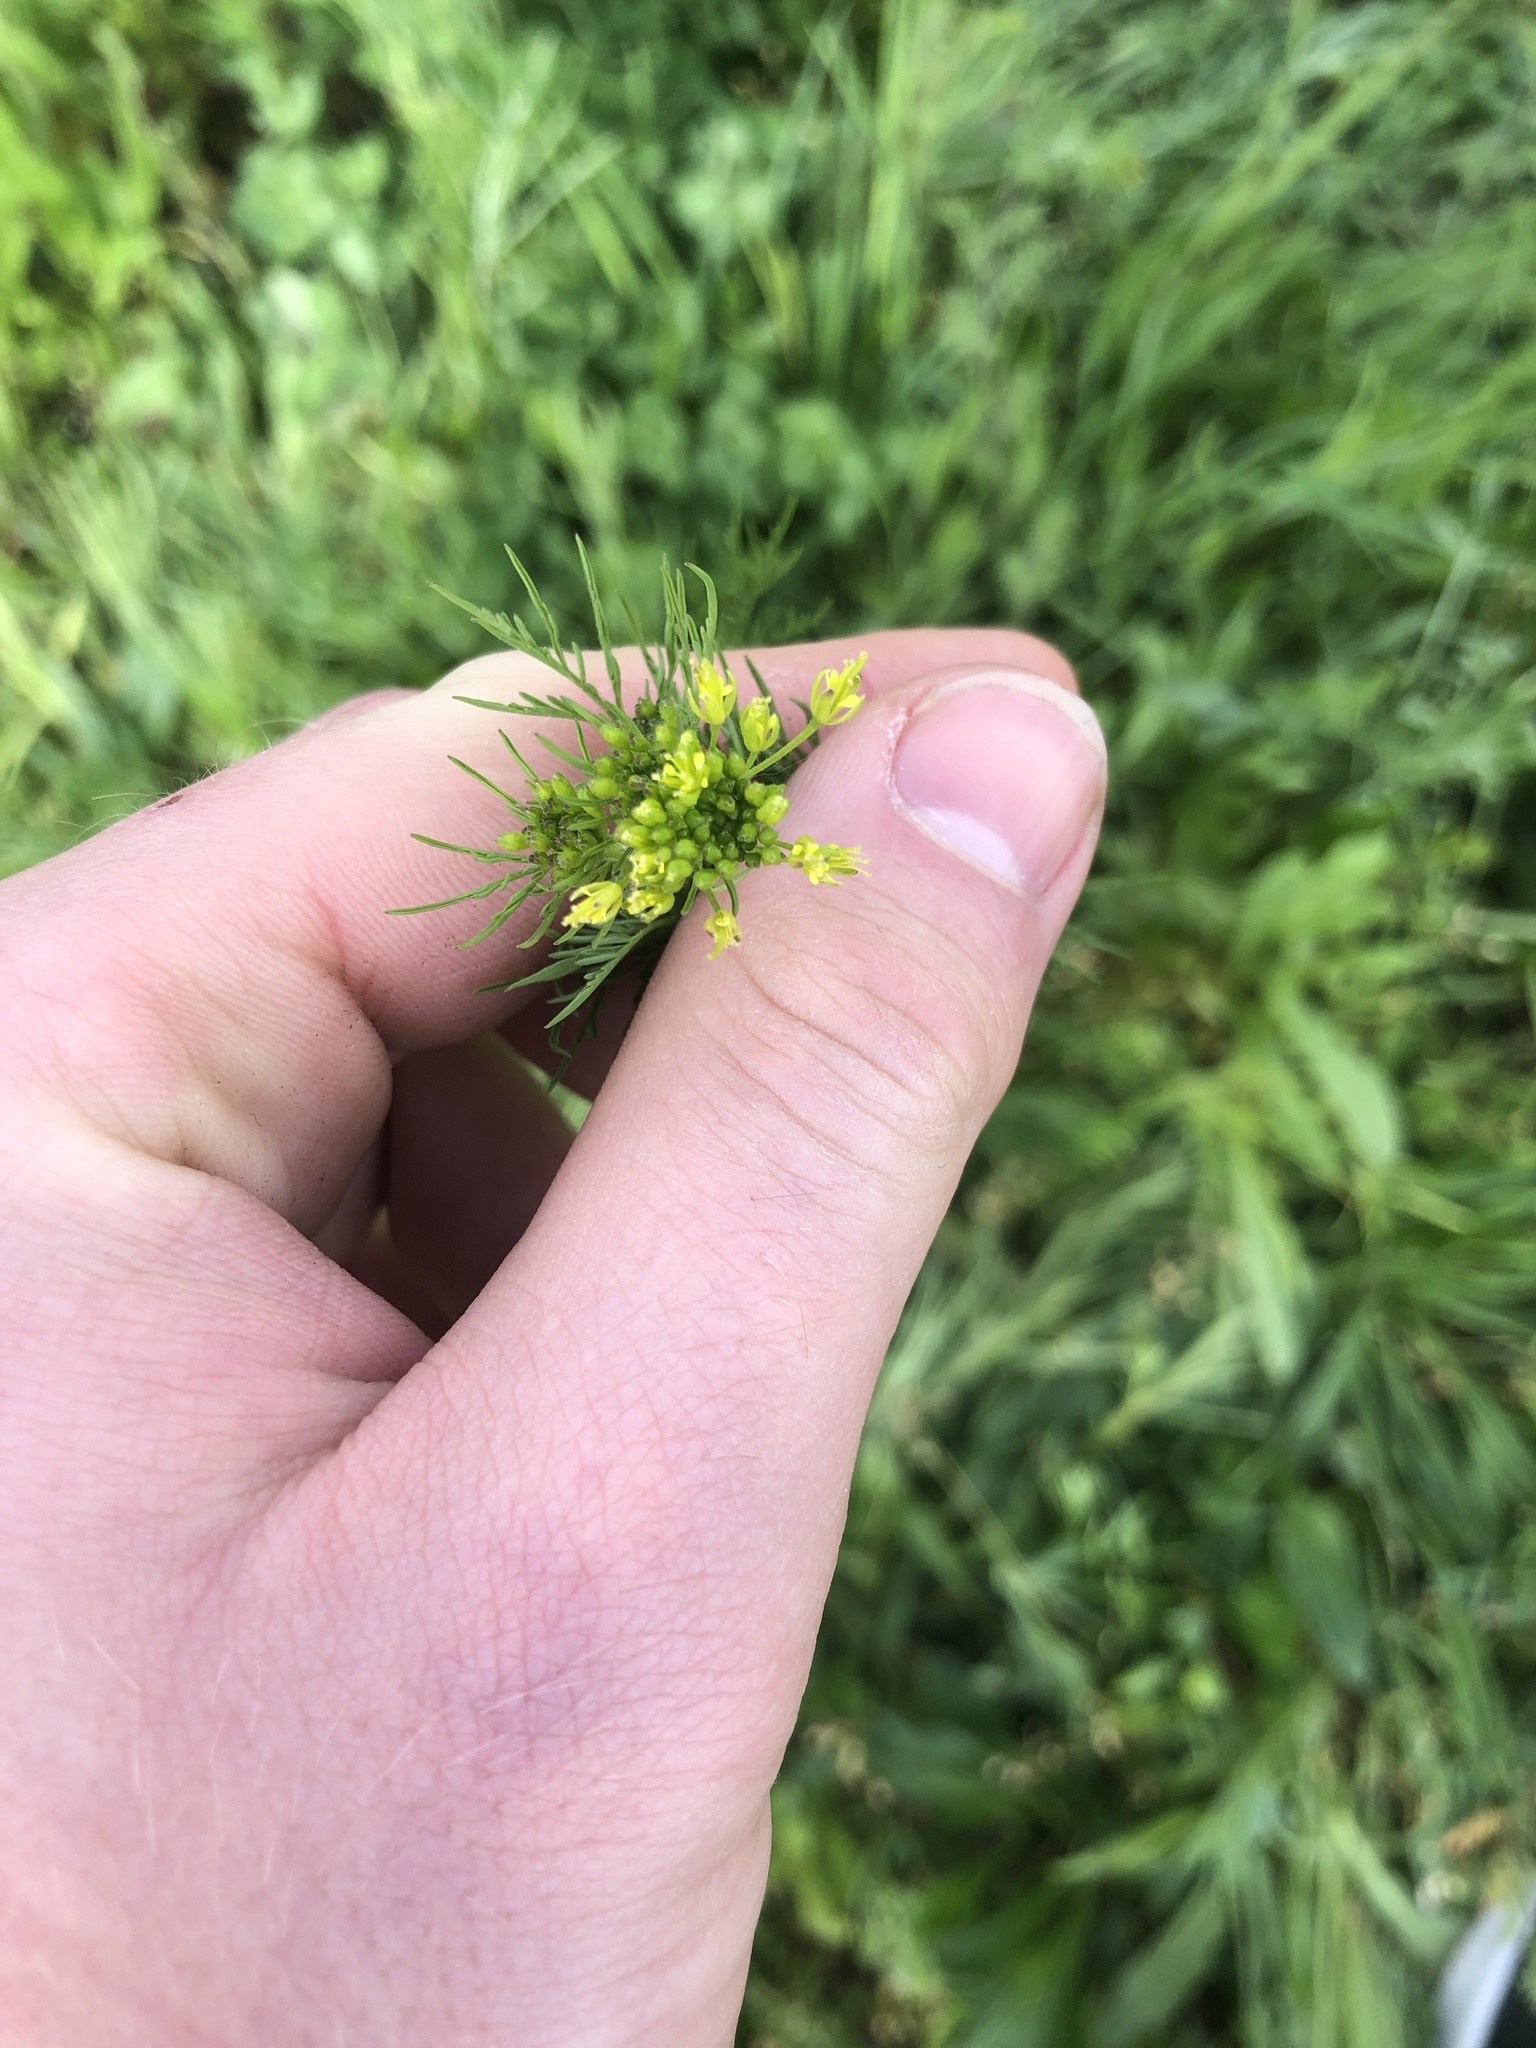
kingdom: Plantae
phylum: Tracheophyta
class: Magnoliopsida
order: Brassicales
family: Brassicaceae
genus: Descurainia
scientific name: Descurainia sophia
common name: Flixweed
